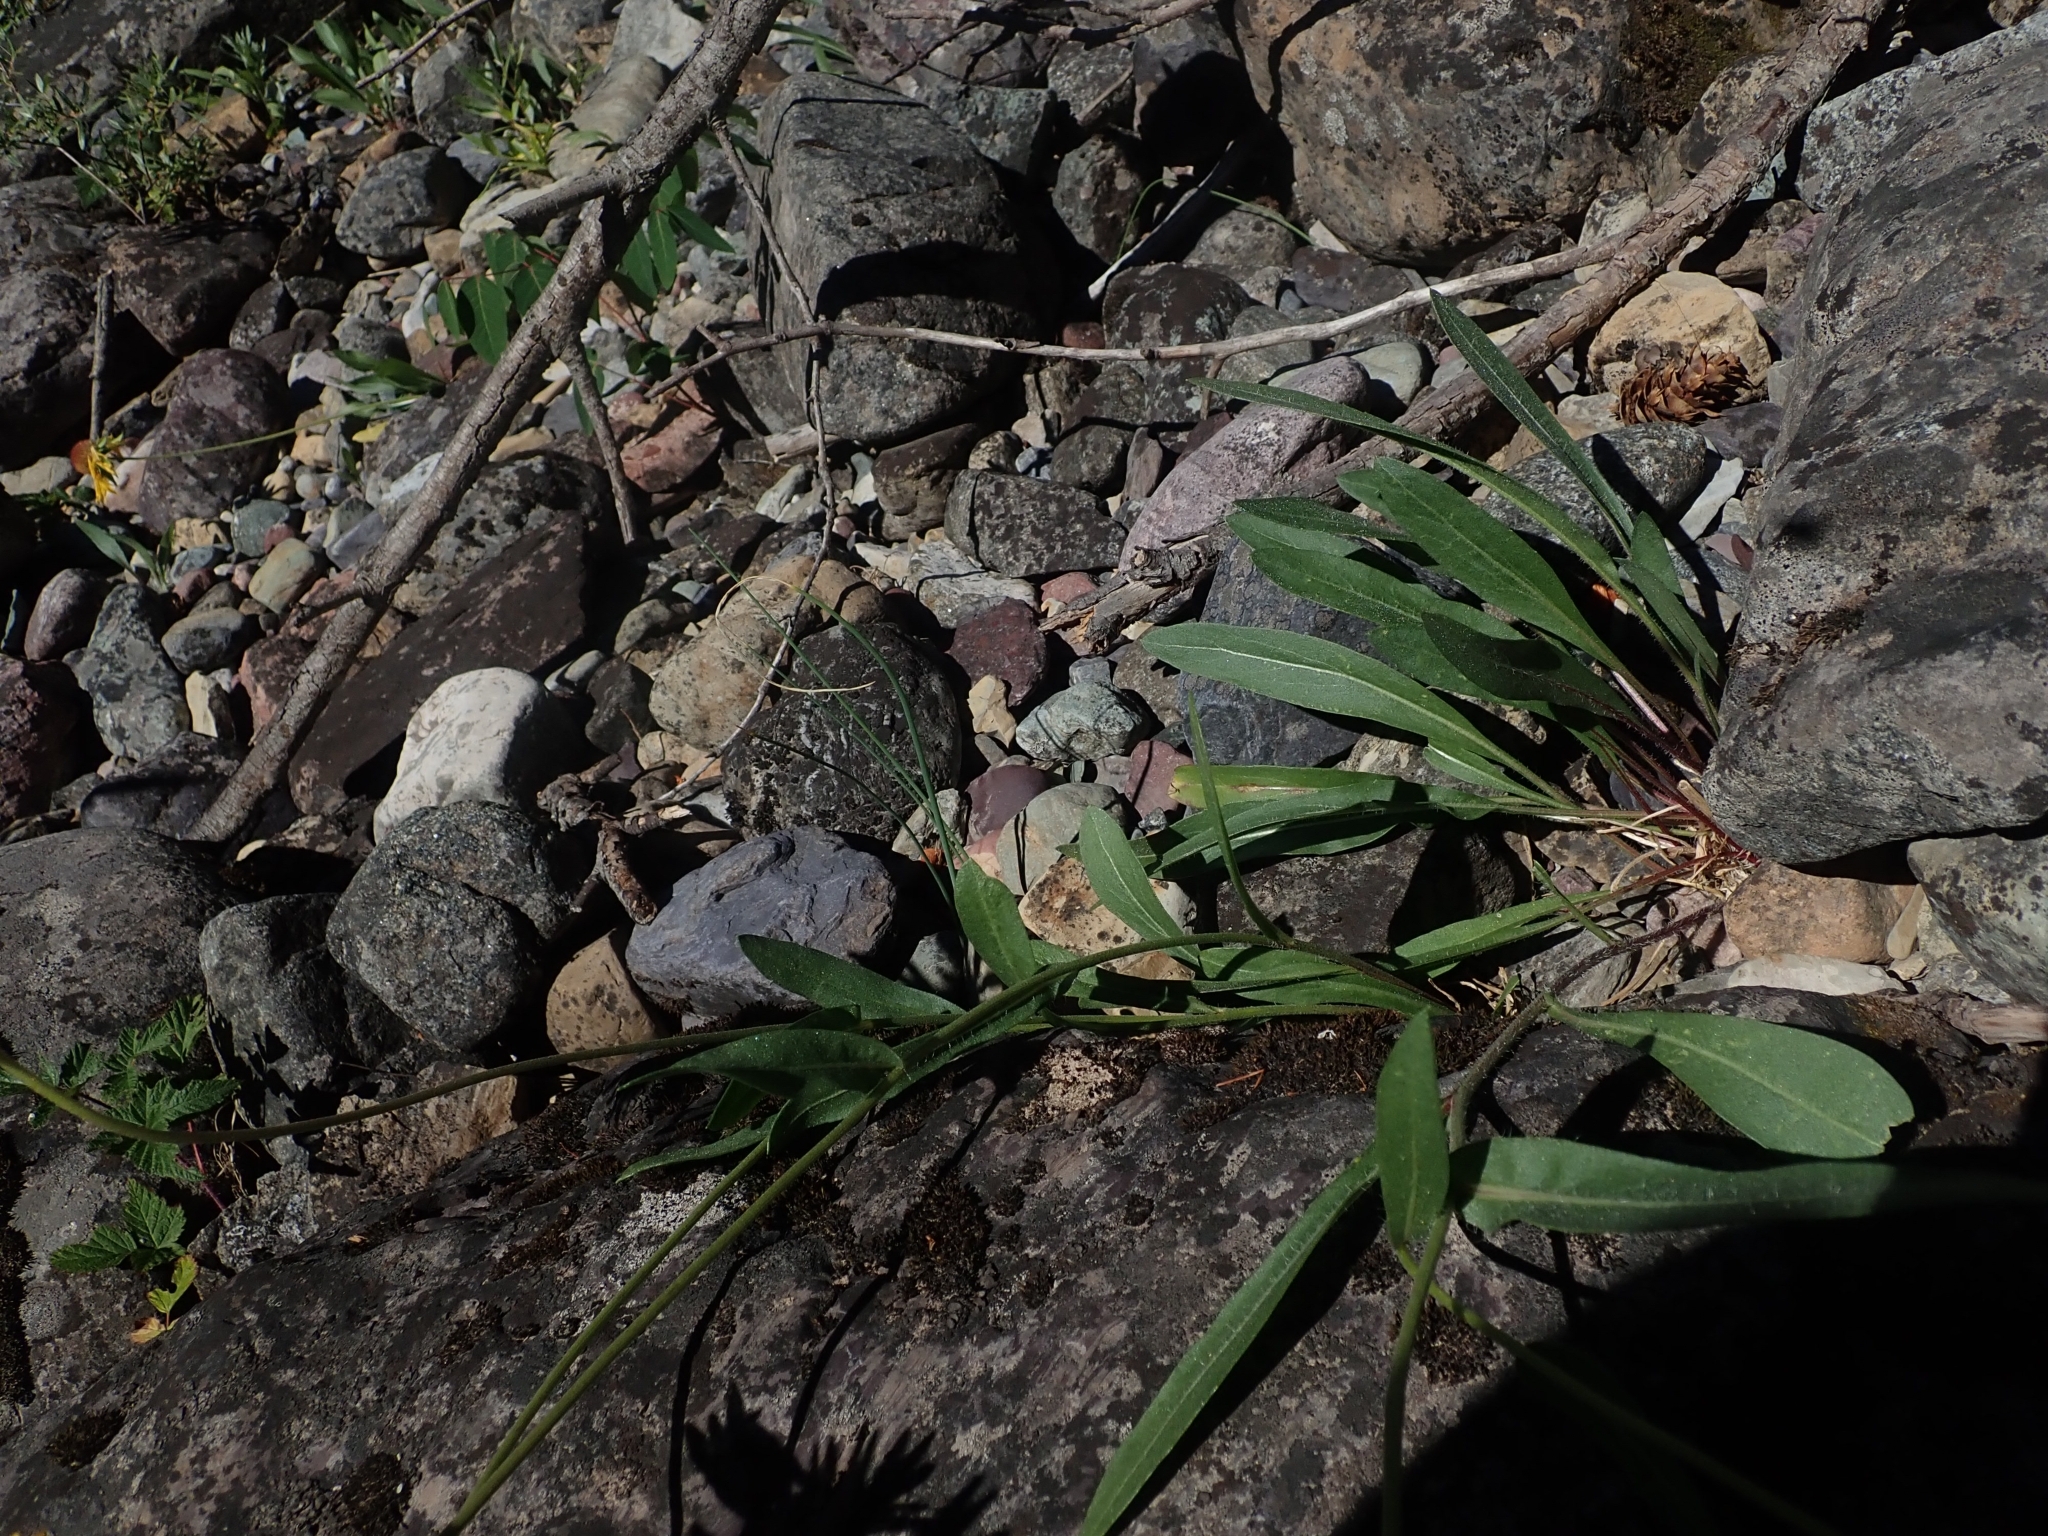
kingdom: Plantae
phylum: Tracheophyta
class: Magnoliopsida
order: Asterales
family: Asteraceae
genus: Gaillardia
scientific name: Gaillardia aristata
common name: Blanket-flower
